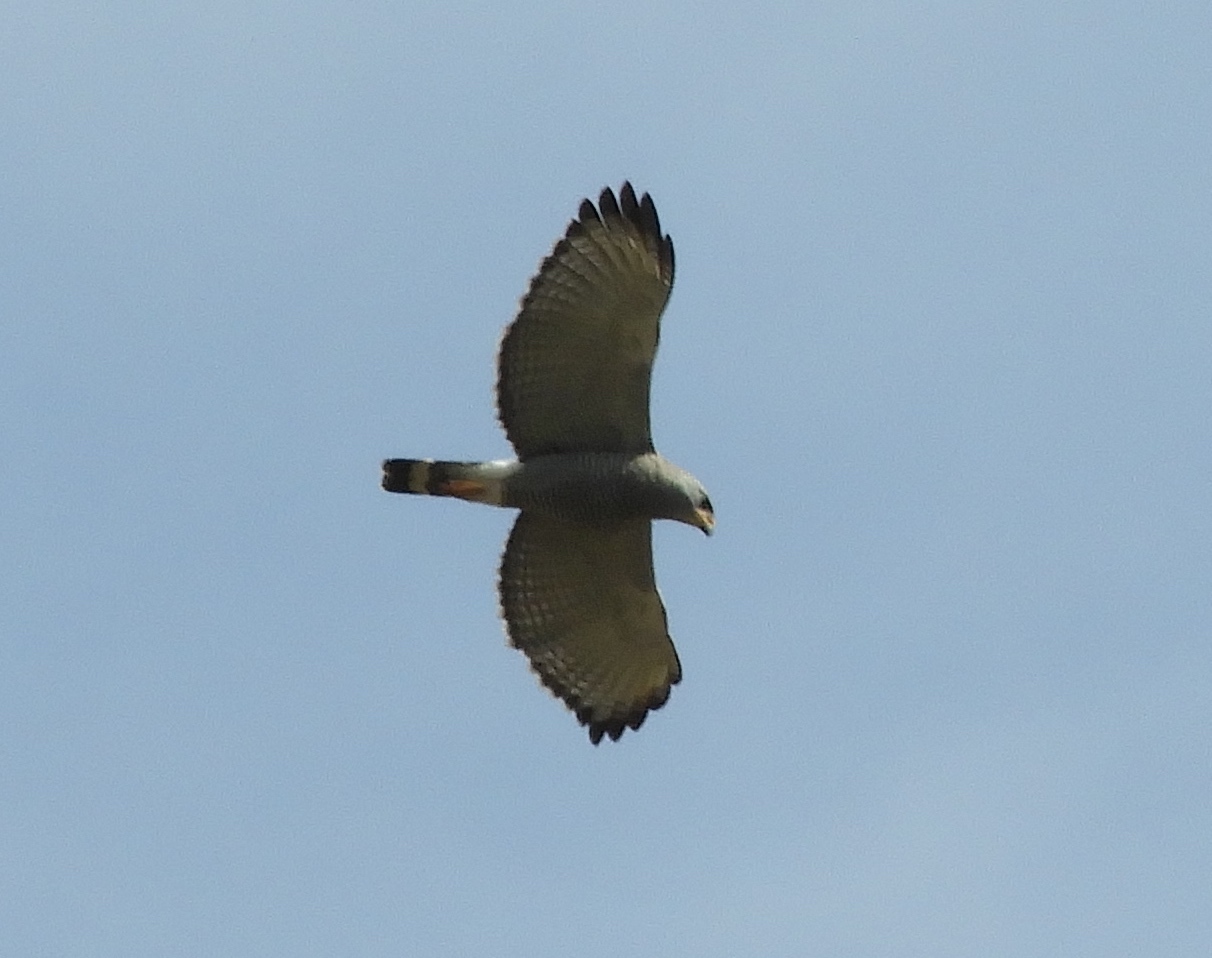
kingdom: Animalia
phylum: Chordata
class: Aves
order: Accipitriformes
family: Accipitridae
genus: Buteo
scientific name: Buteo nitidus
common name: Grey-lined hawk
